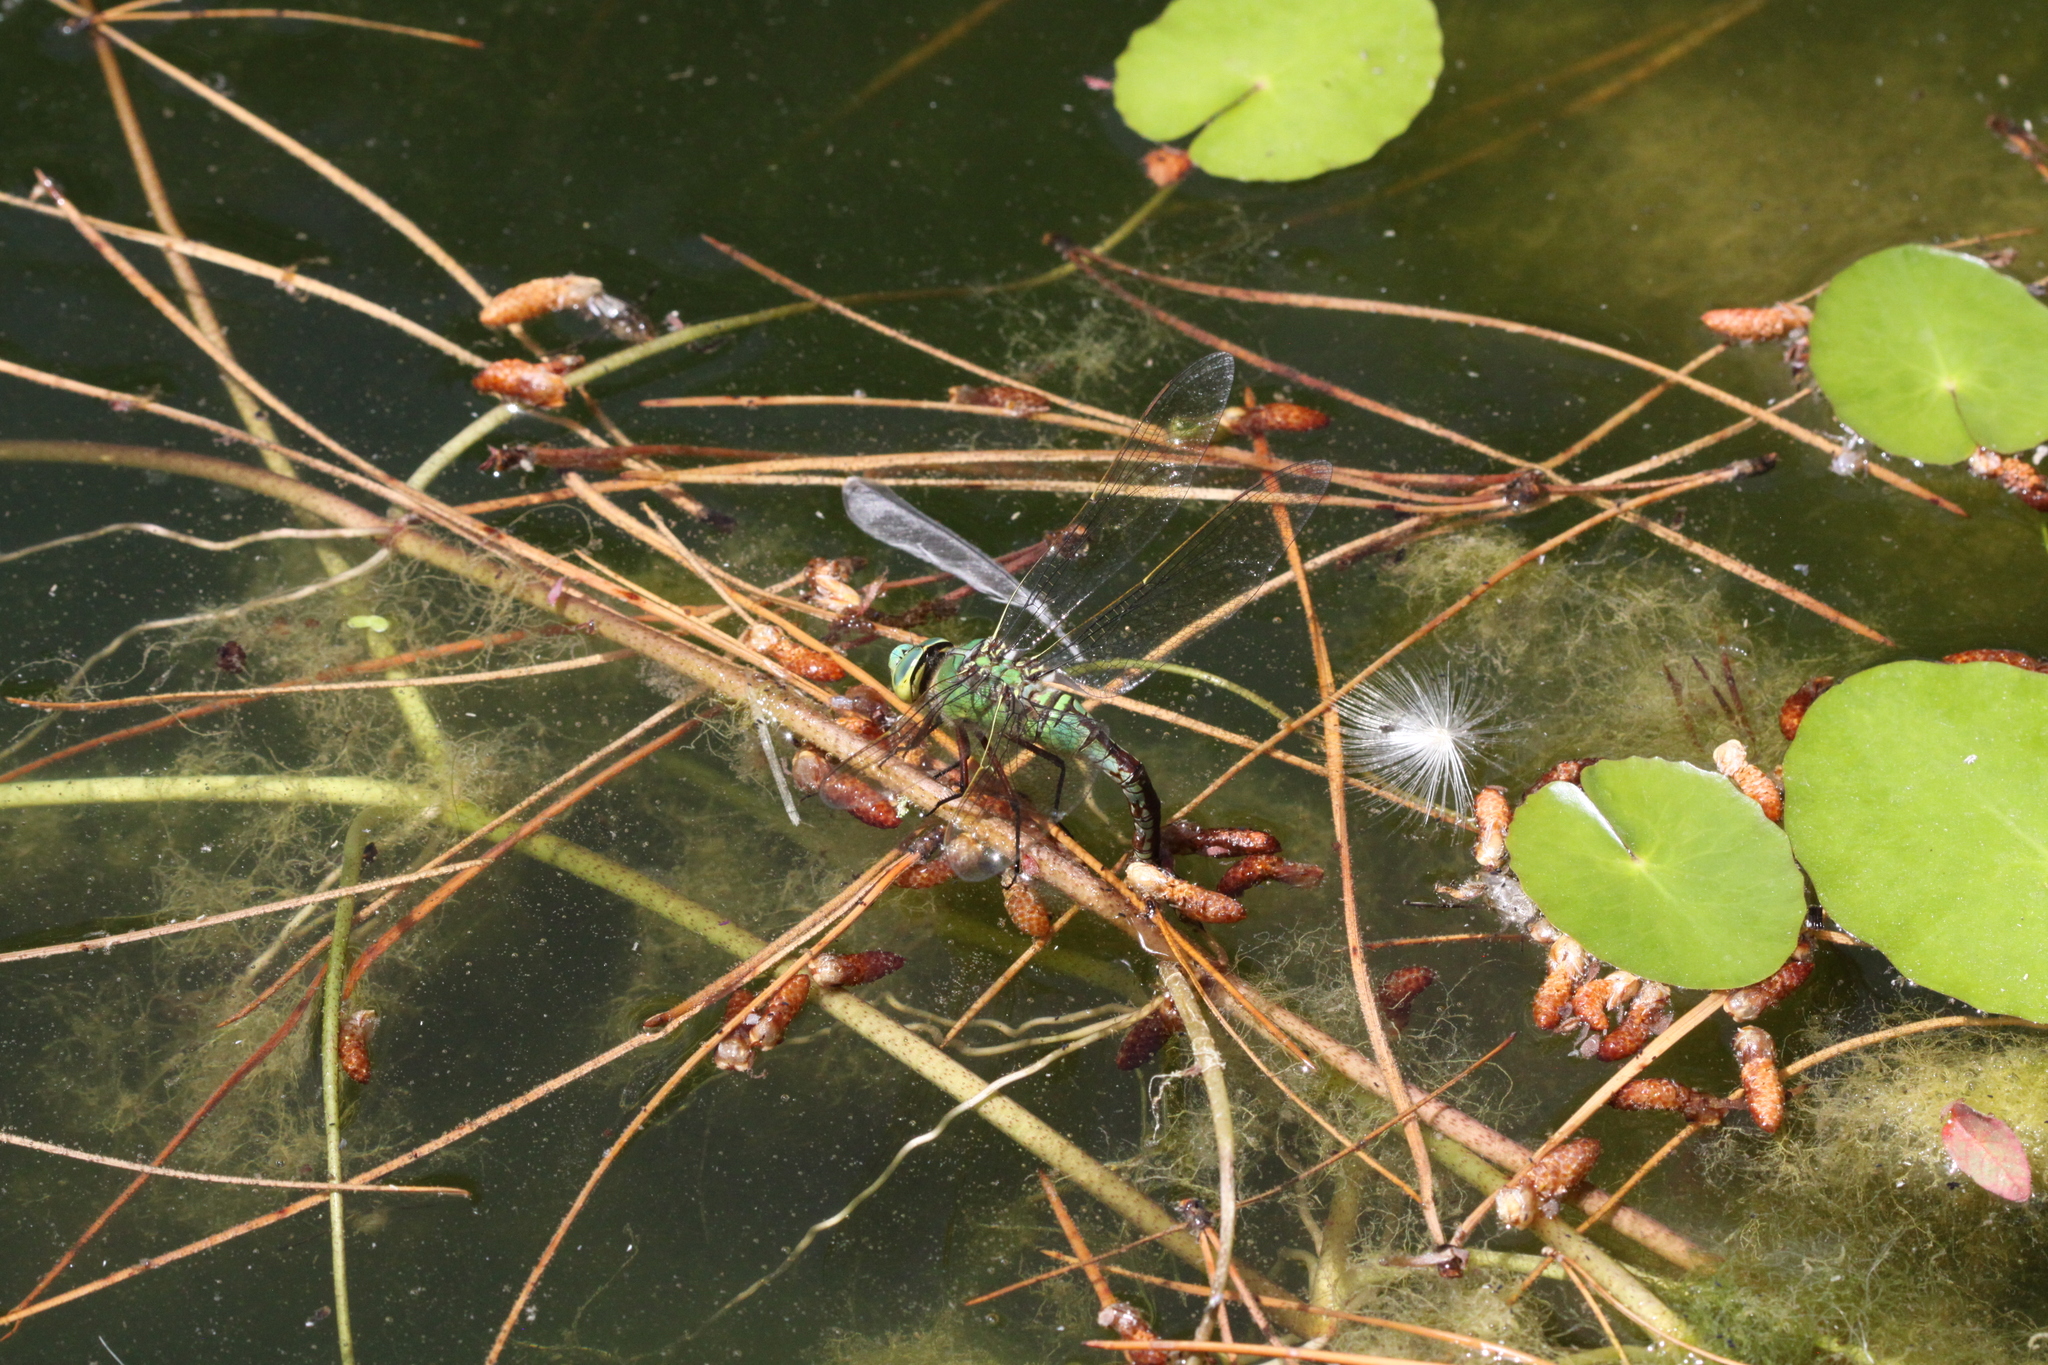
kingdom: Animalia
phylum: Arthropoda
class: Insecta
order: Odonata
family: Aeshnidae
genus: Anax
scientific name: Anax imperator
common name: Emperor dragonfly
